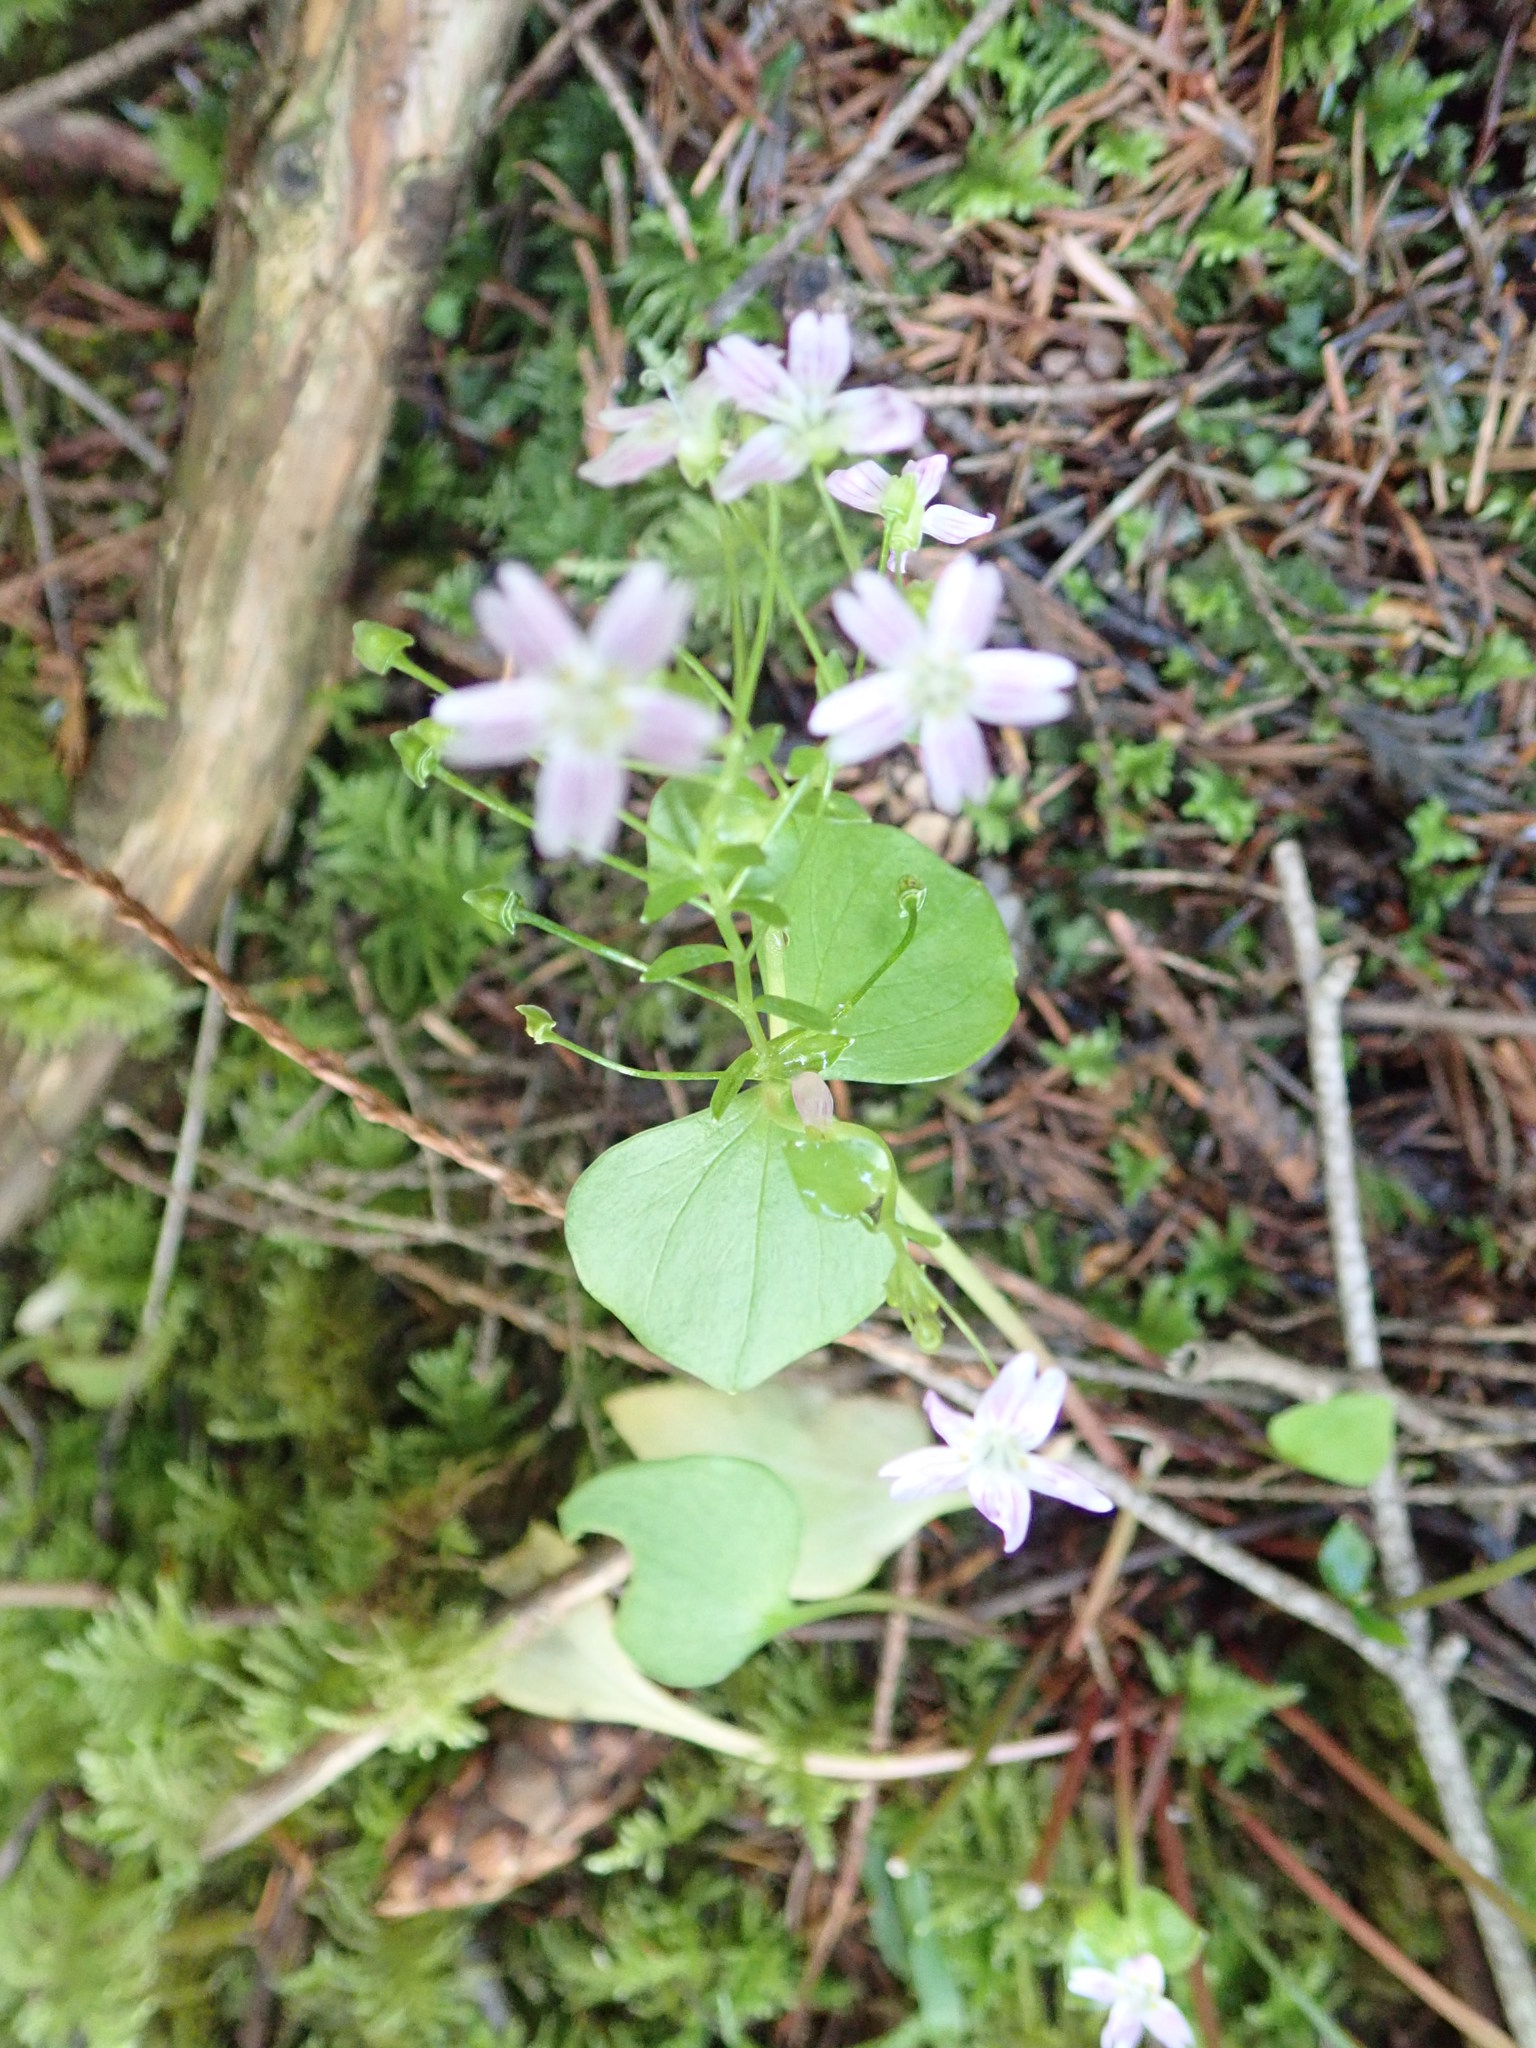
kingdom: Plantae
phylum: Tracheophyta
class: Magnoliopsida
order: Caryophyllales
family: Montiaceae
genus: Claytonia
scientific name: Claytonia sibirica
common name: Pink purslane
